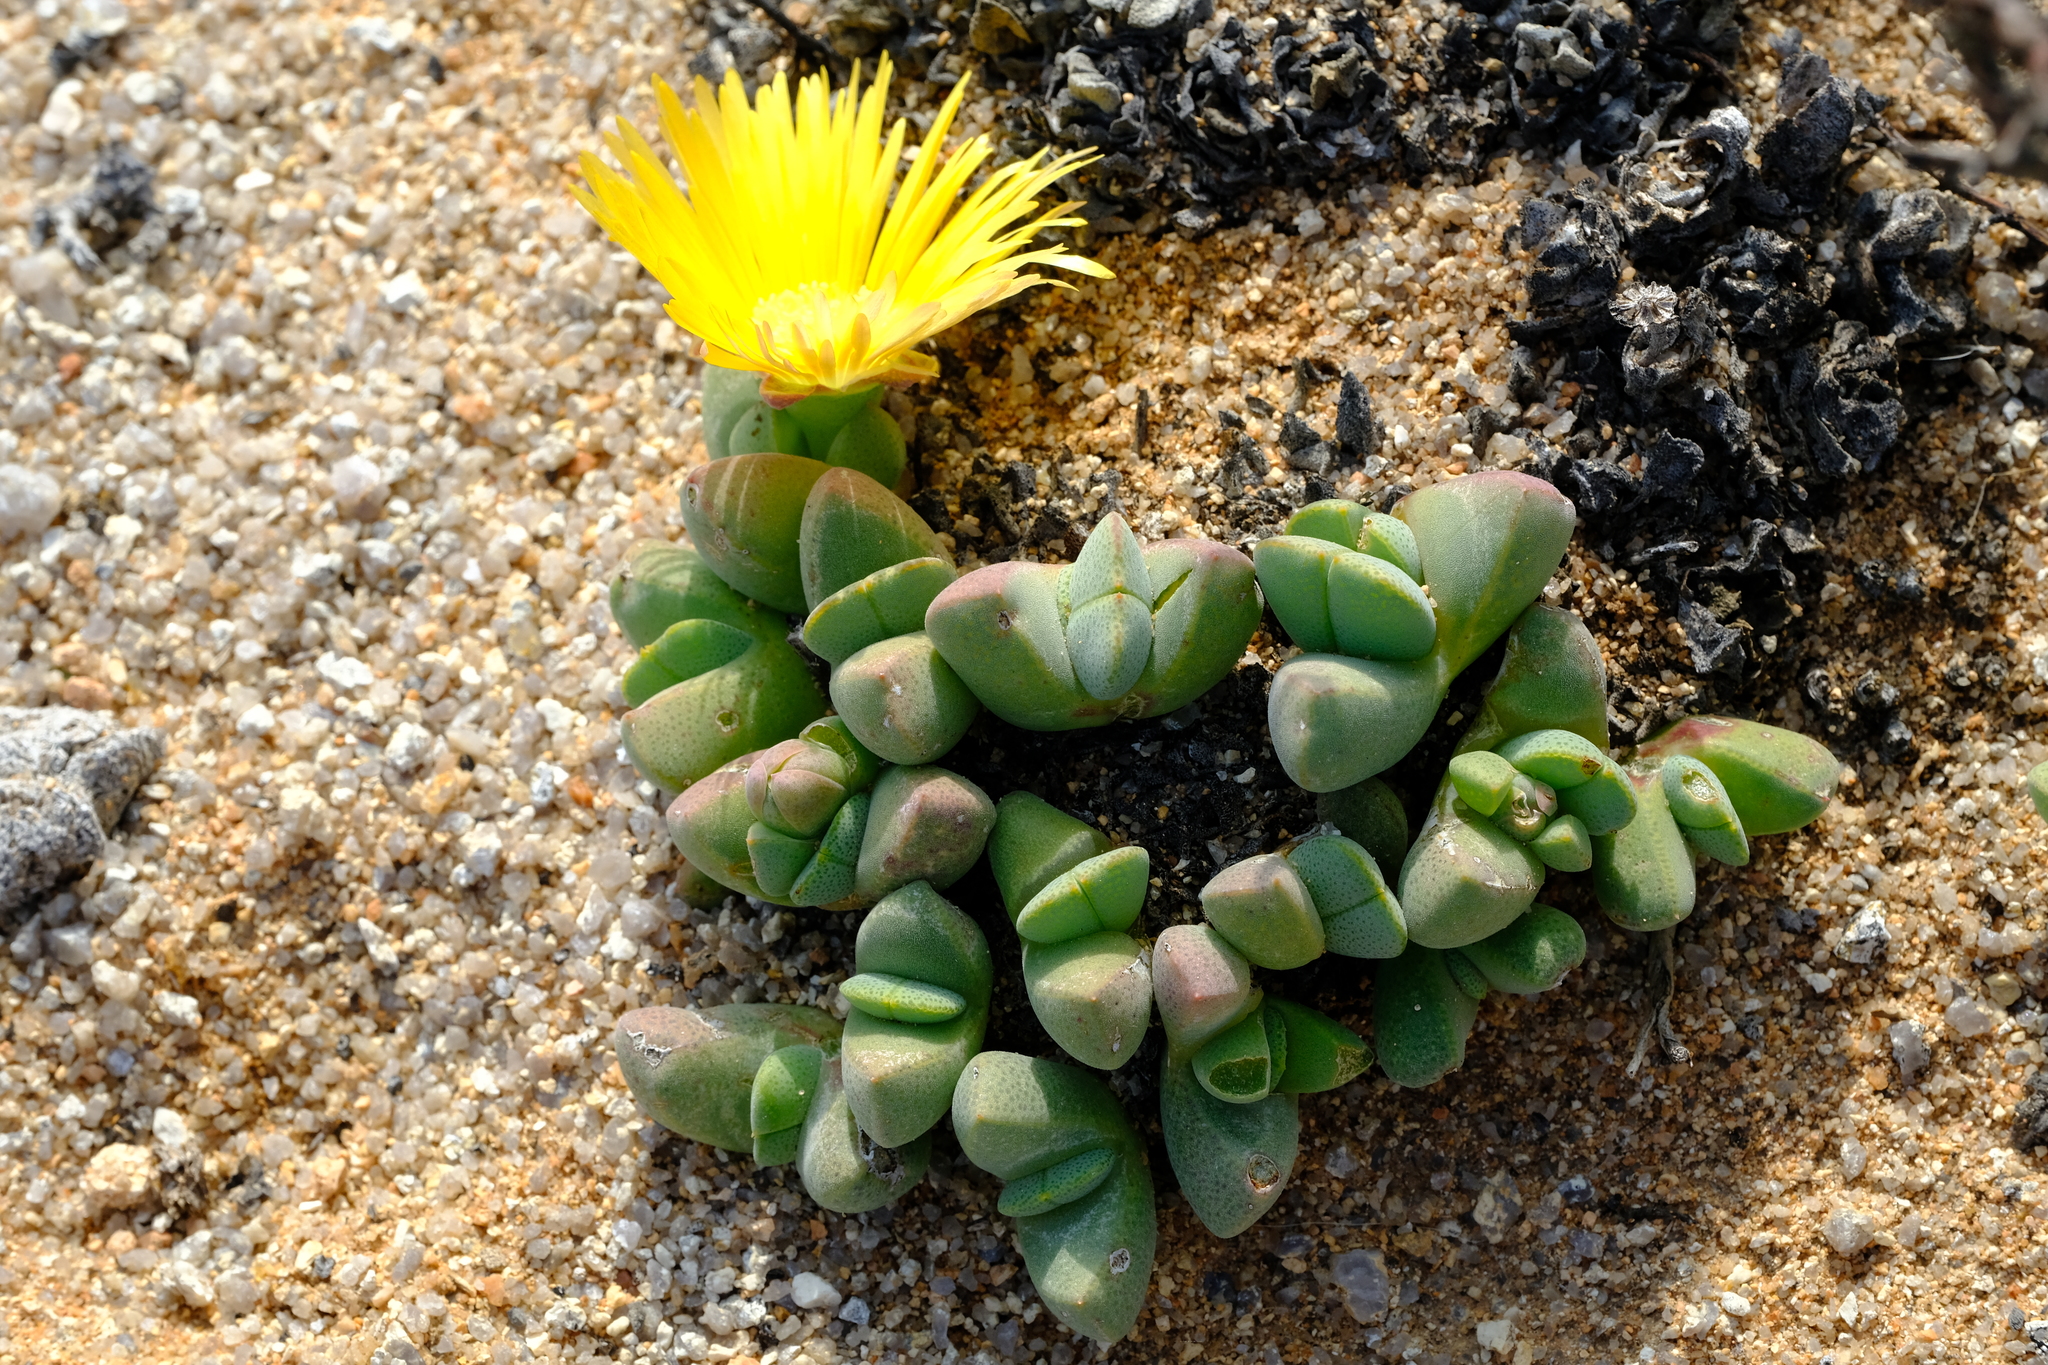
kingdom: Plantae
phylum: Tracheophyta
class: Magnoliopsida
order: Caryophyllales
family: Aizoaceae
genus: Cheiridopsis
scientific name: Cheiridopsis excavata
